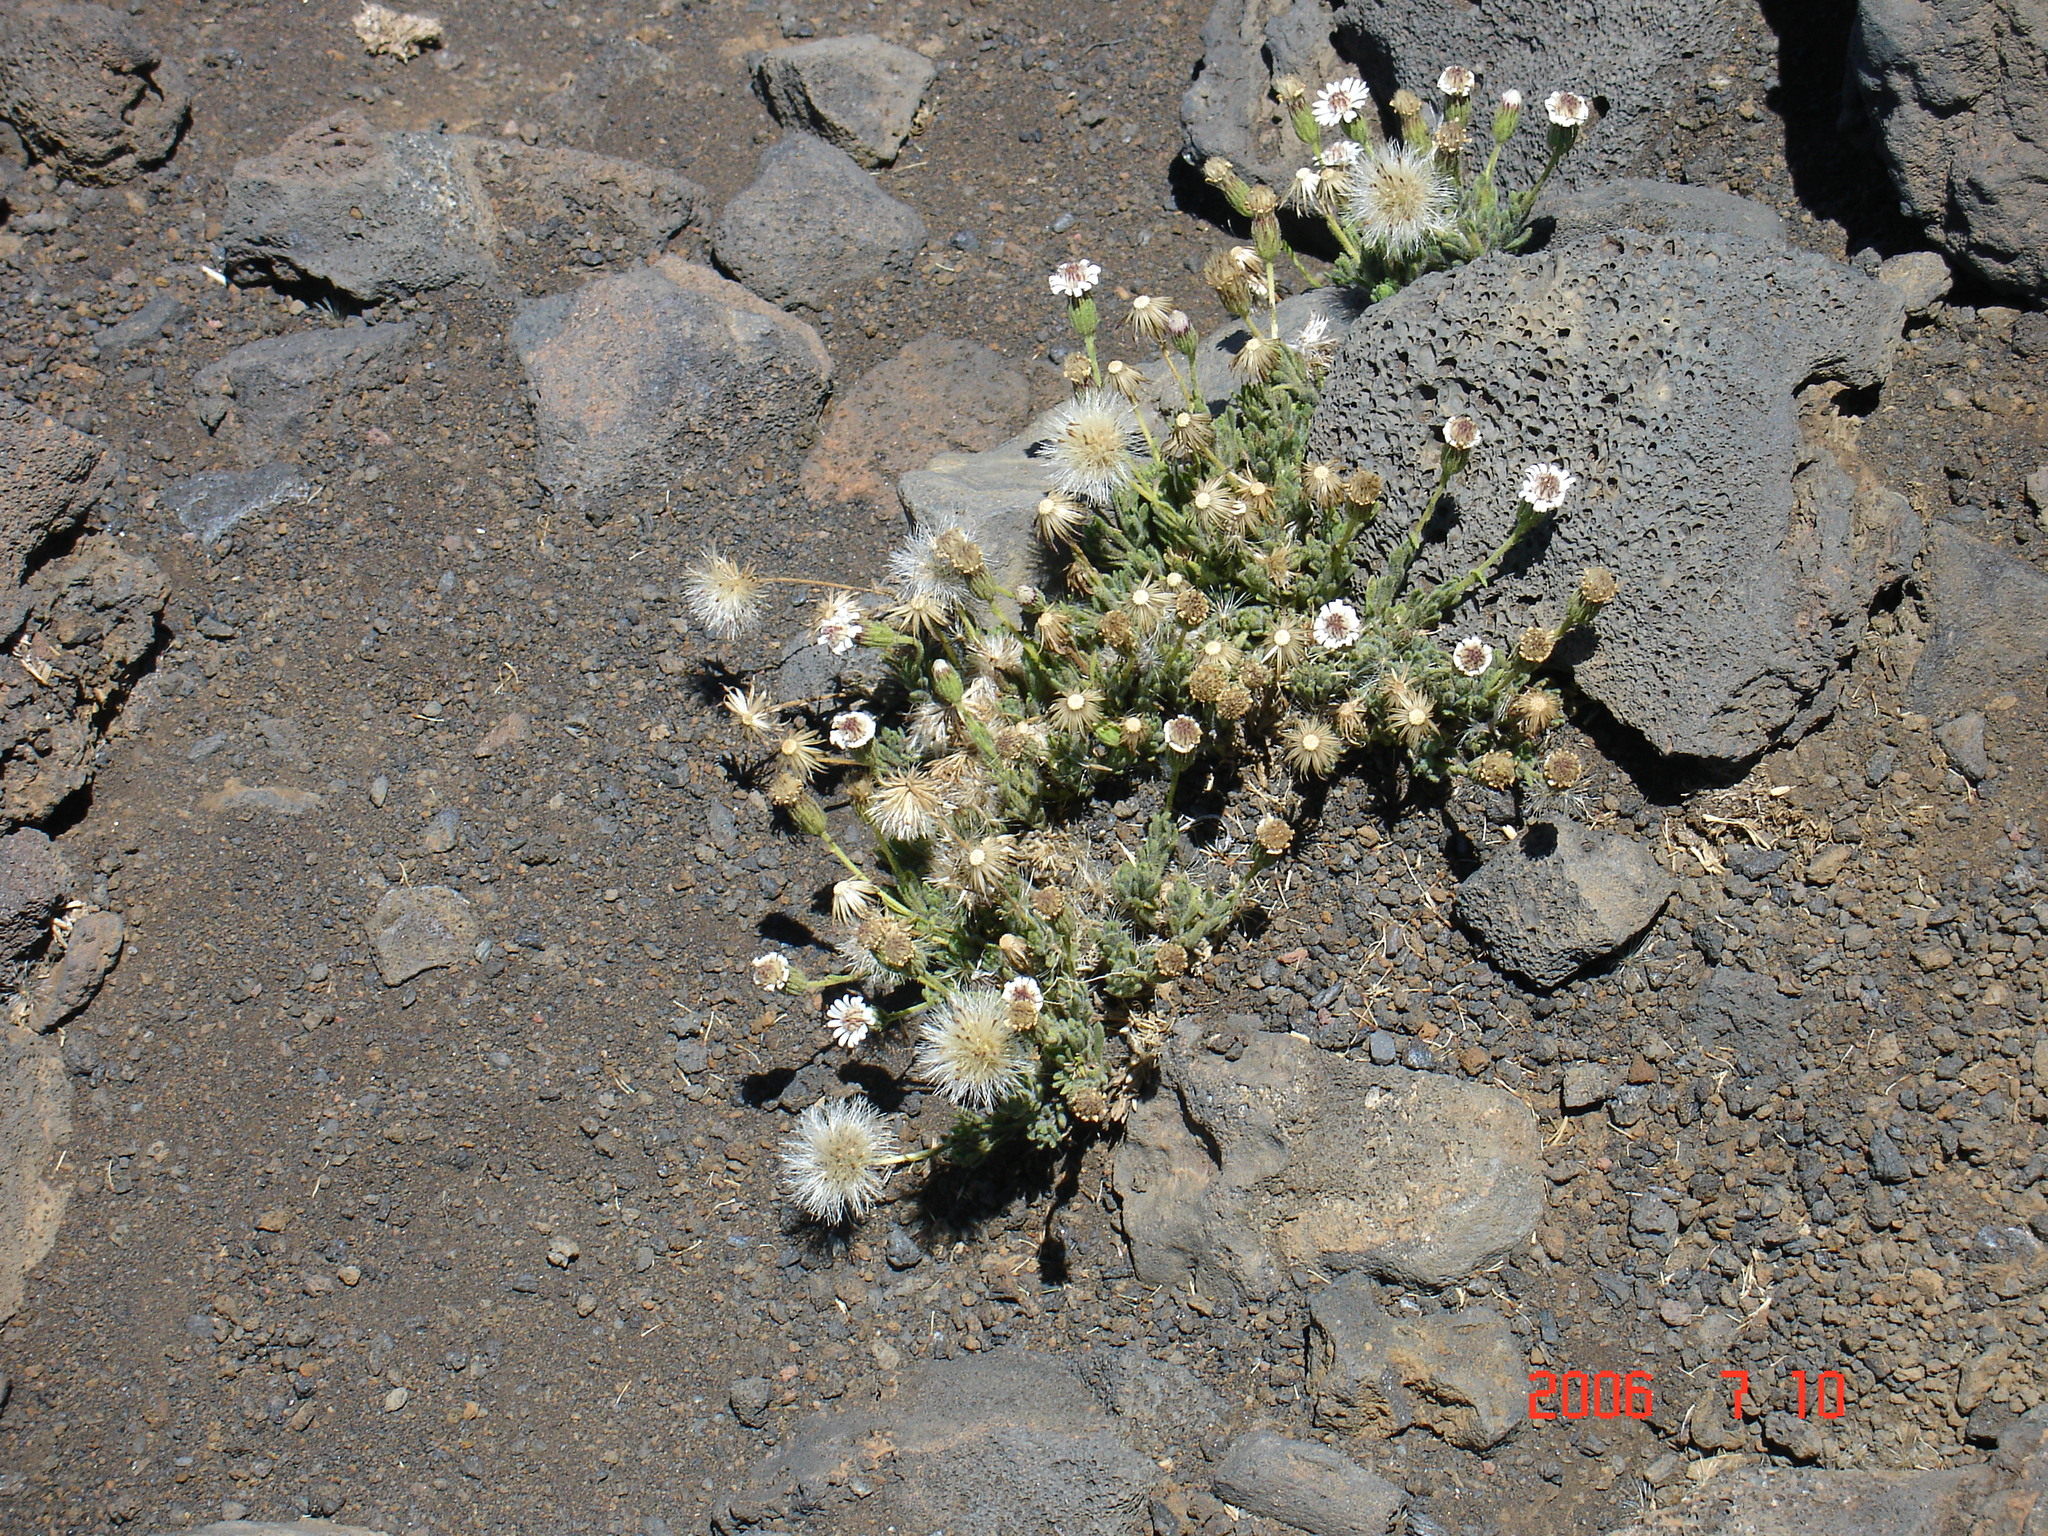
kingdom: Plantae
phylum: Tracheophyta
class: Magnoliopsida
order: Asterales
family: Asteraceae
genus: Tetramolopium
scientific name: Tetramolopium humile
